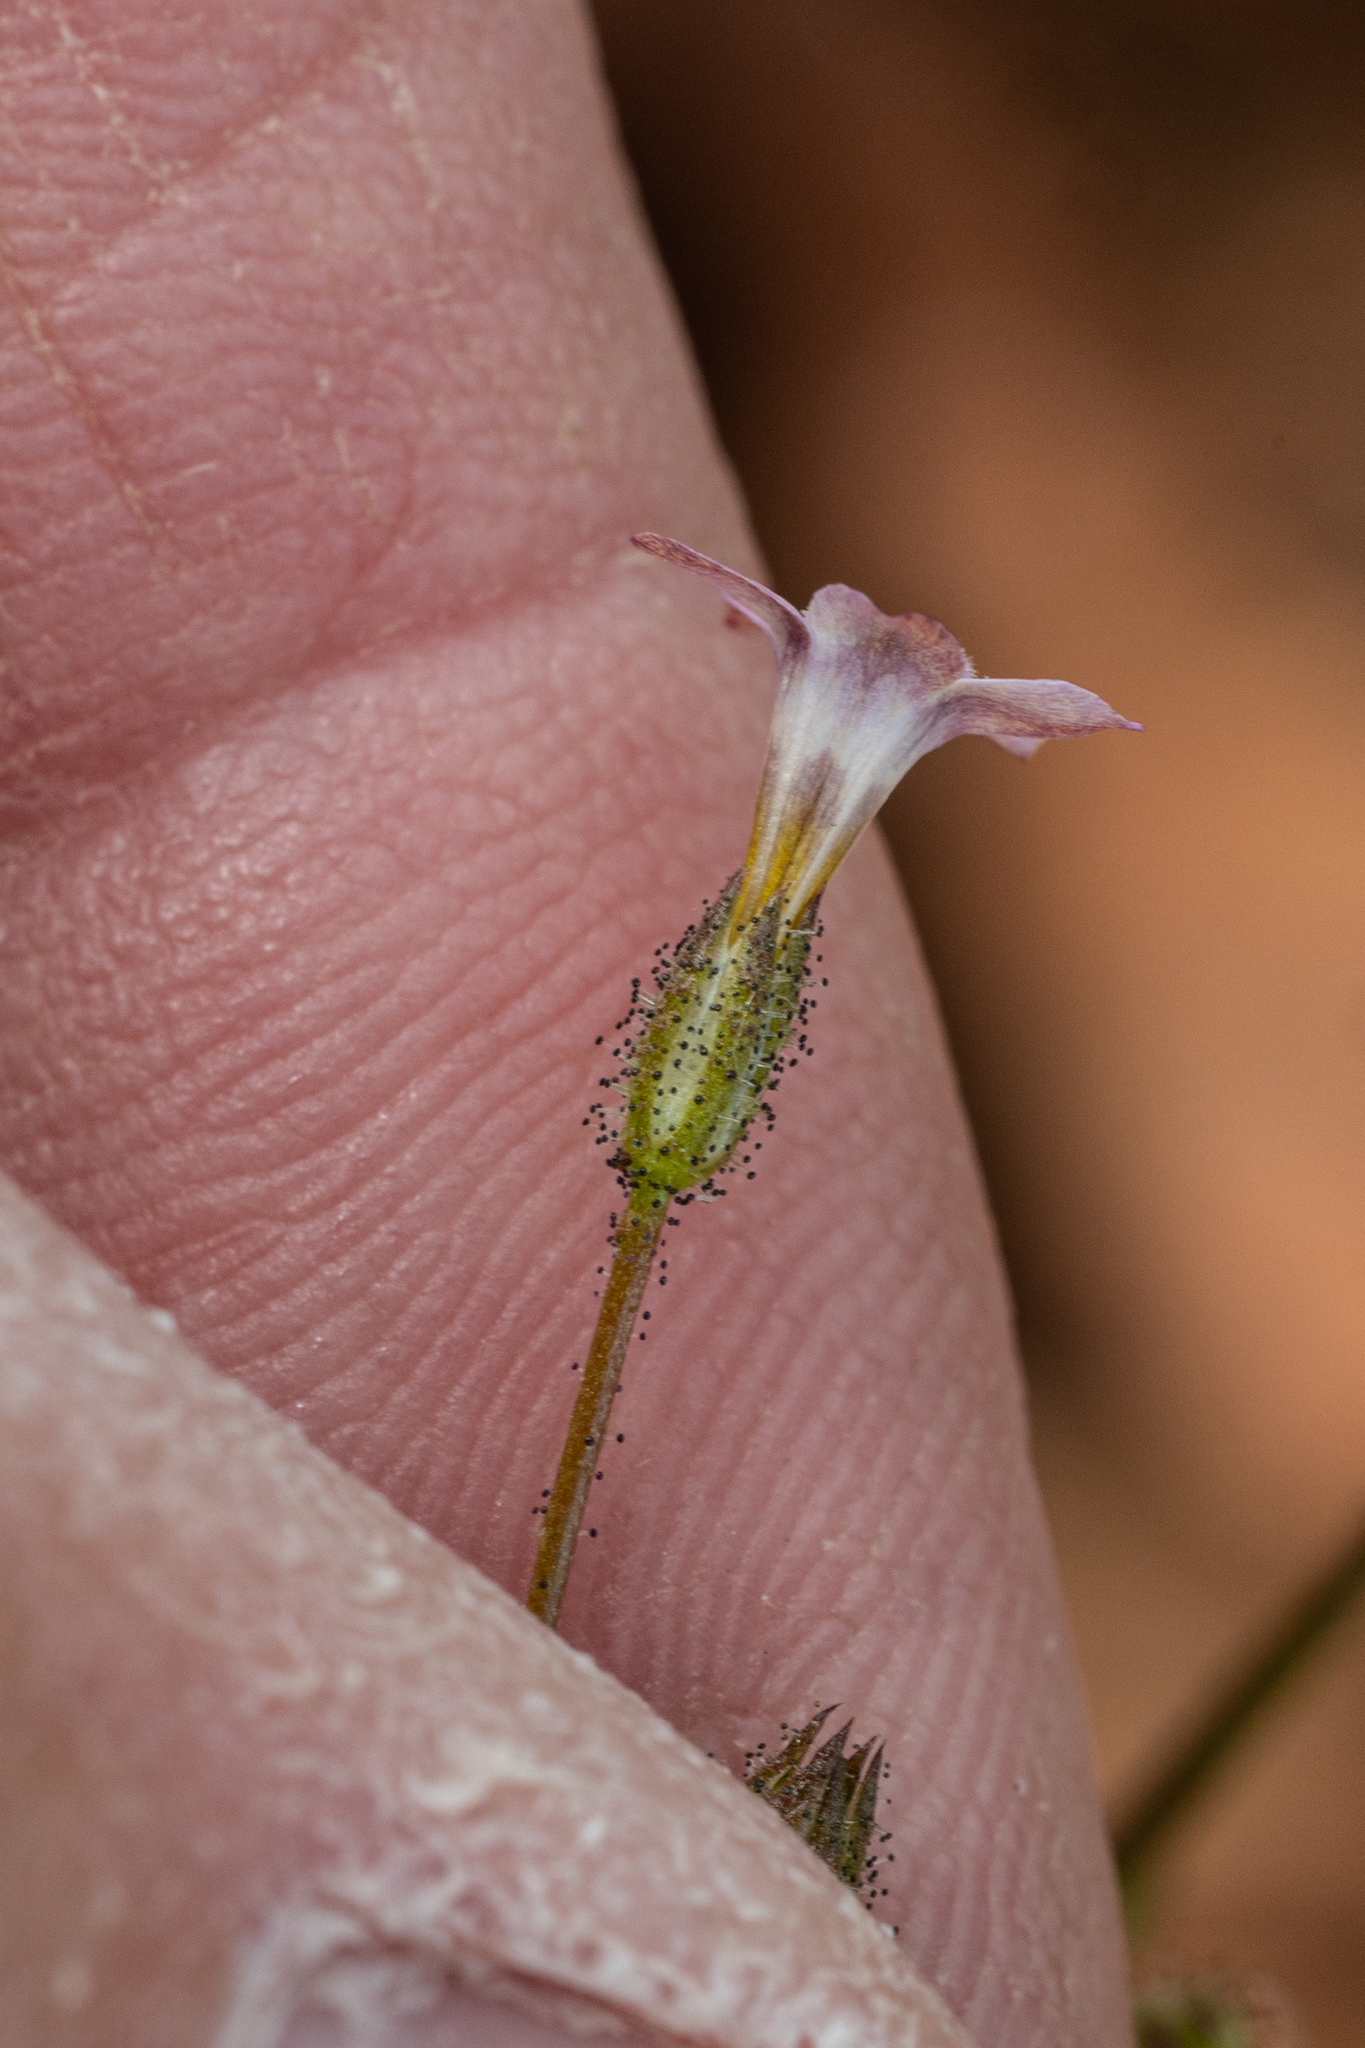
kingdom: Plantae
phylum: Tracheophyta
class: Magnoliopsida
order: Ericales
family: Polemoniaceae
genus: Gilia
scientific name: Gilia stellata
